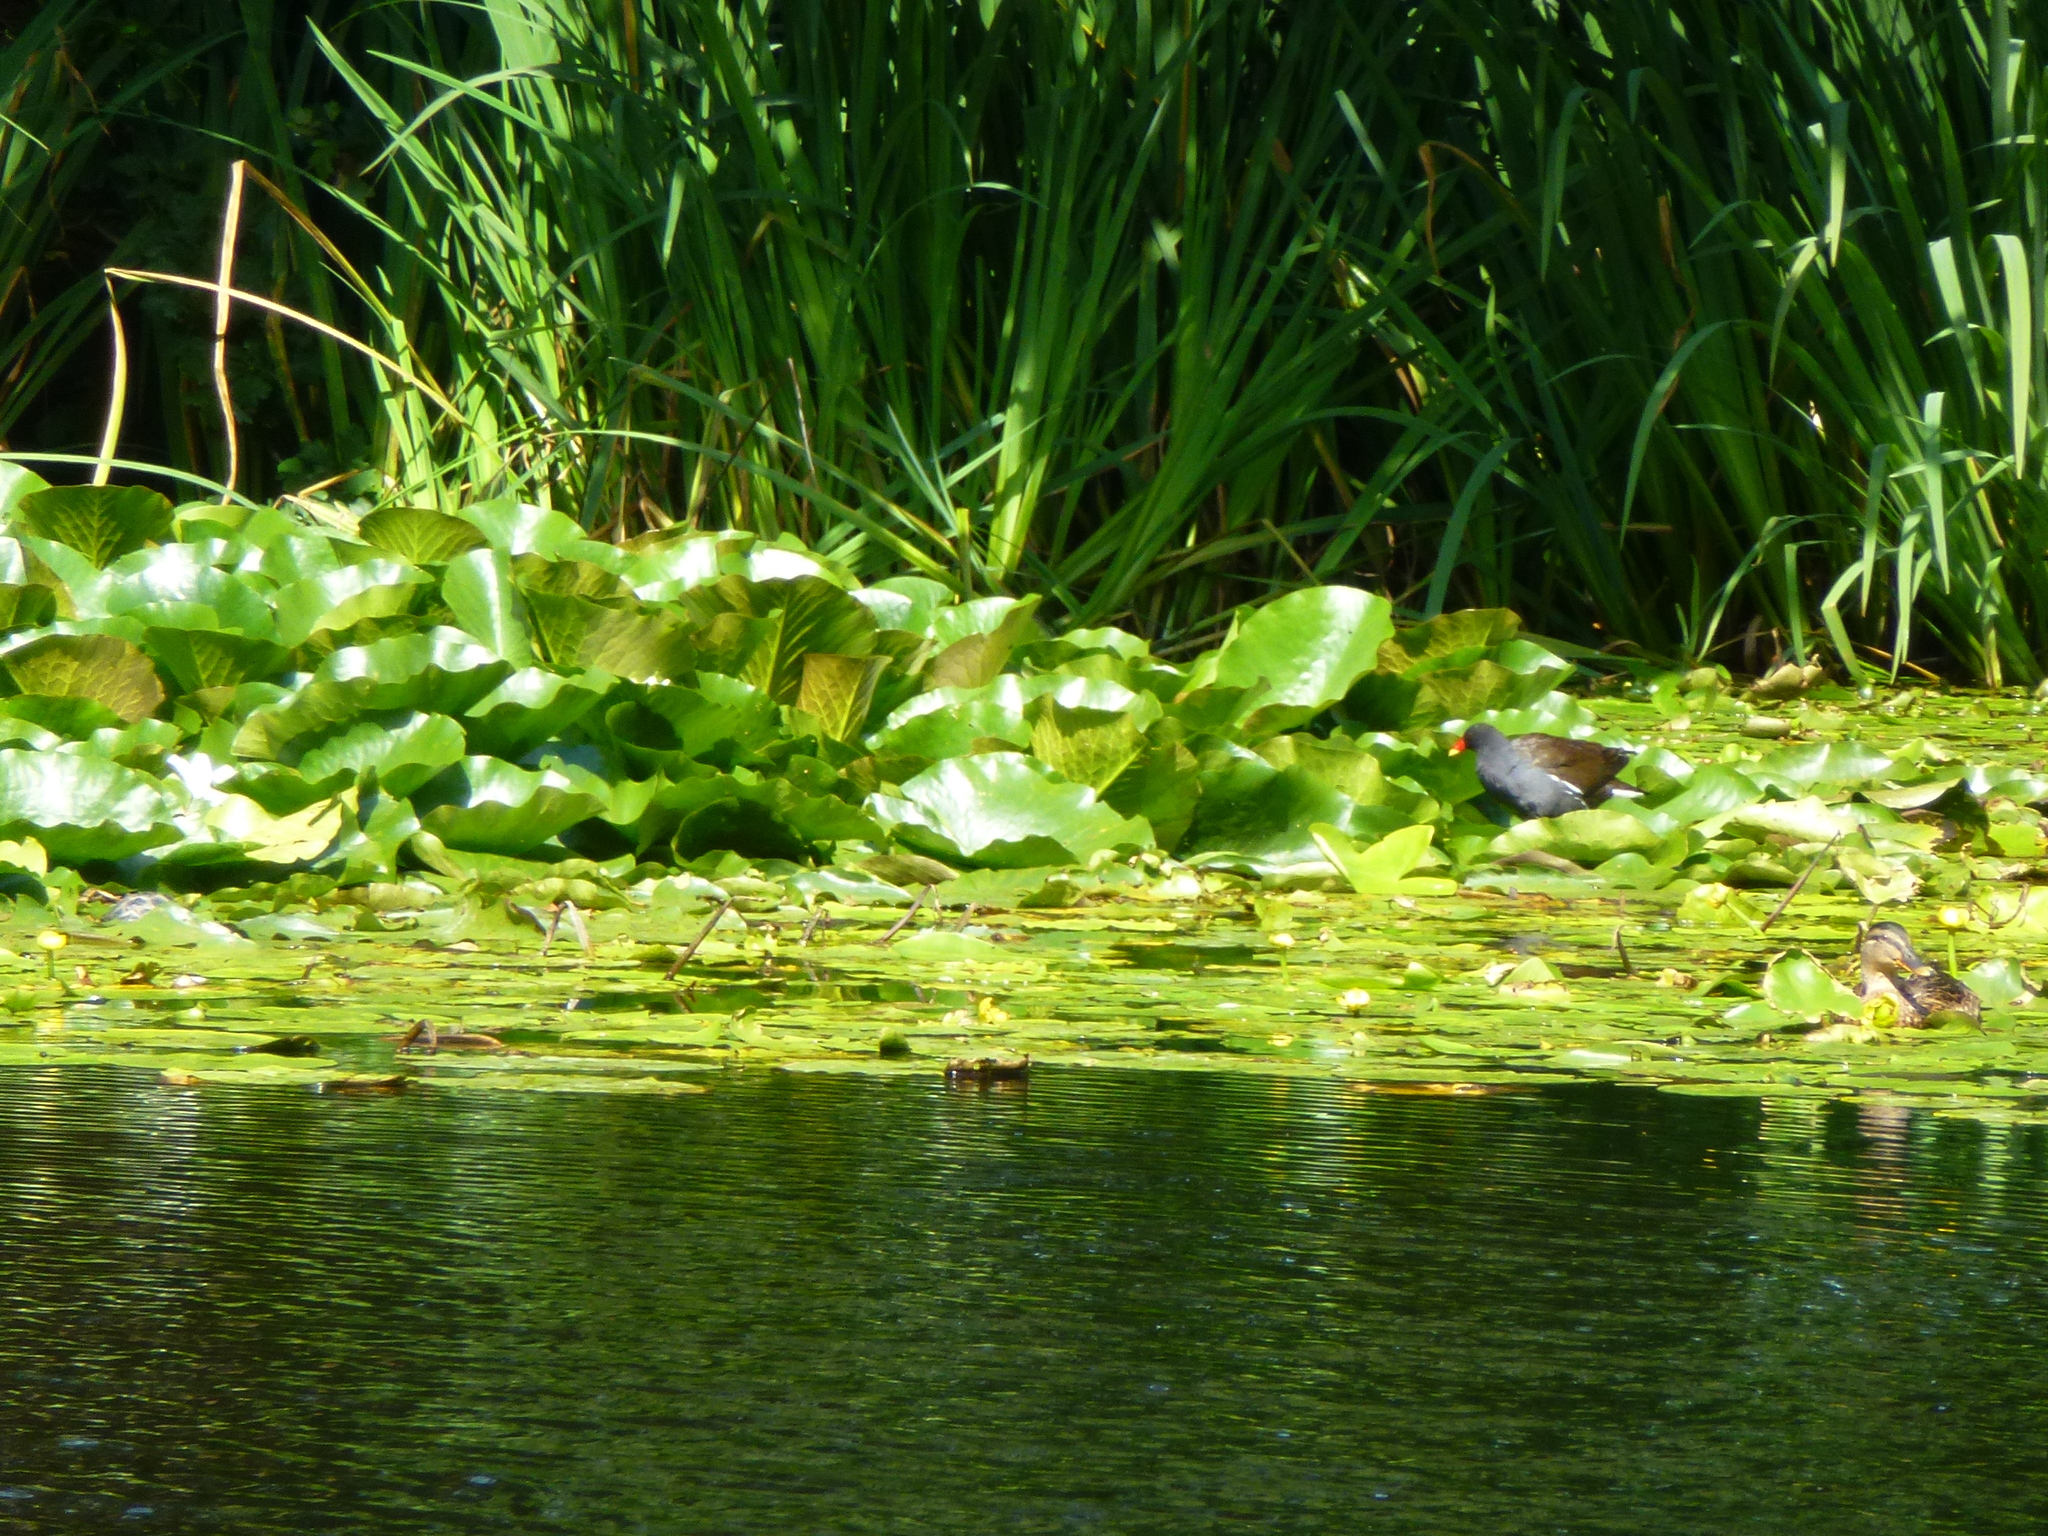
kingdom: Animalia
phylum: Chordata
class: Aves
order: Gruiformes
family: Rallidae
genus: Gallinula
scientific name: Gallinula chloropus
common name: Common moorhen
